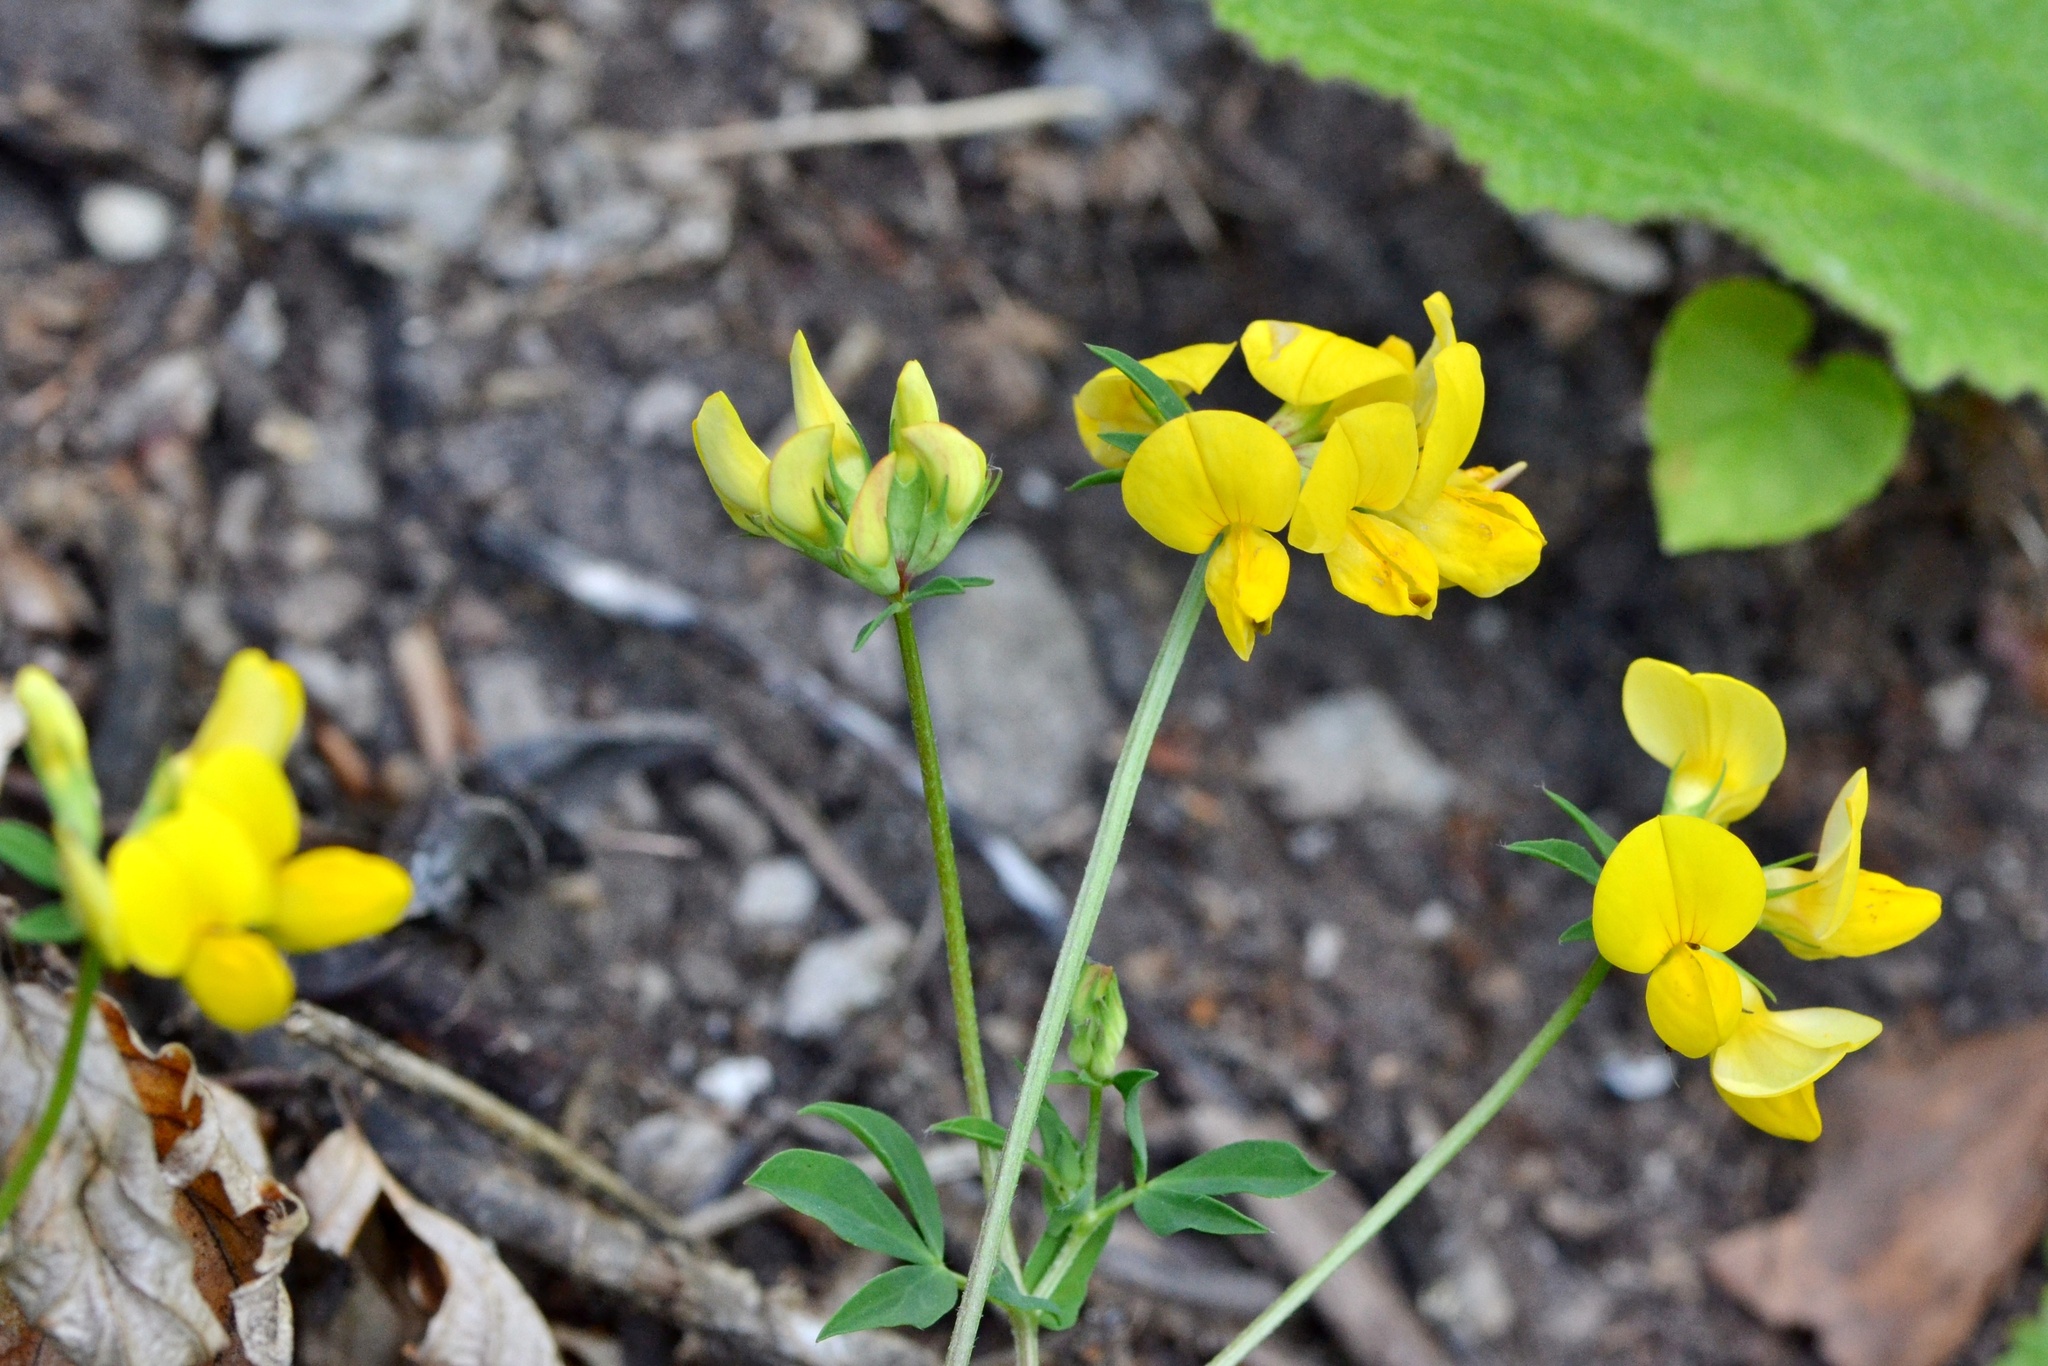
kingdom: Plantae
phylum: Tracheophyta
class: Magnoliopsida
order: Fabales
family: Fabaceae
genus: Lotus
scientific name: Lotus corniculatus
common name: Common bird's-foot-trefoil
